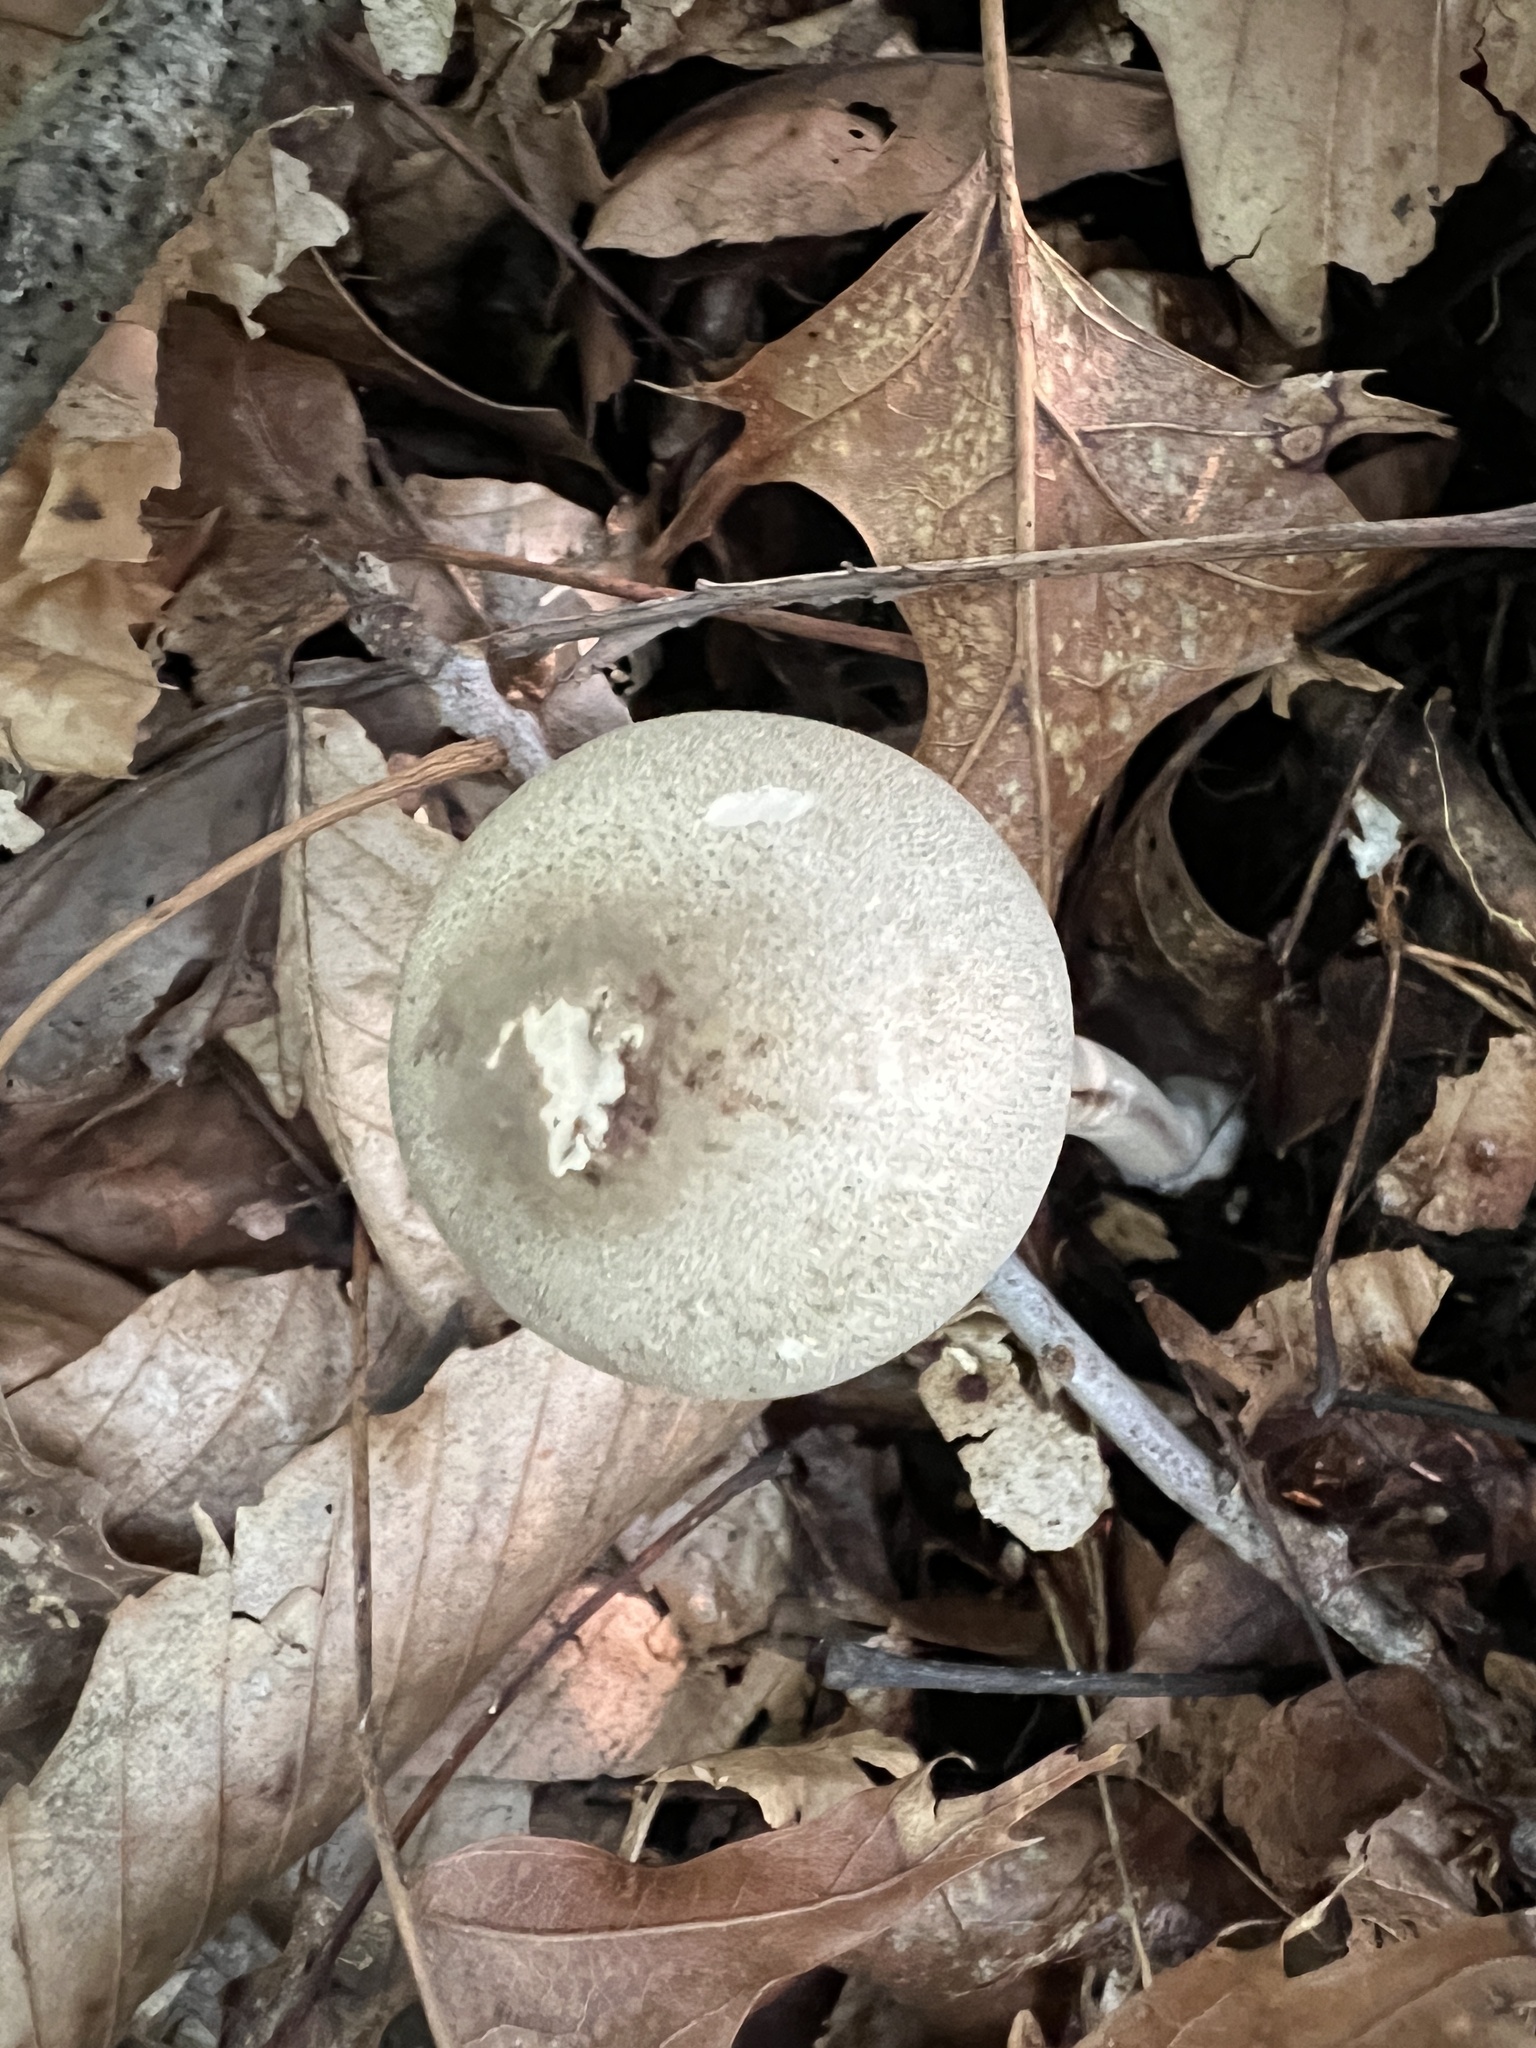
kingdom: Fungi
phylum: Basidiomycota
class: Agaricomycetes
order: Agaricales
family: Agaricaceae
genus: Agaricus
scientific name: Agaricus pocillator
